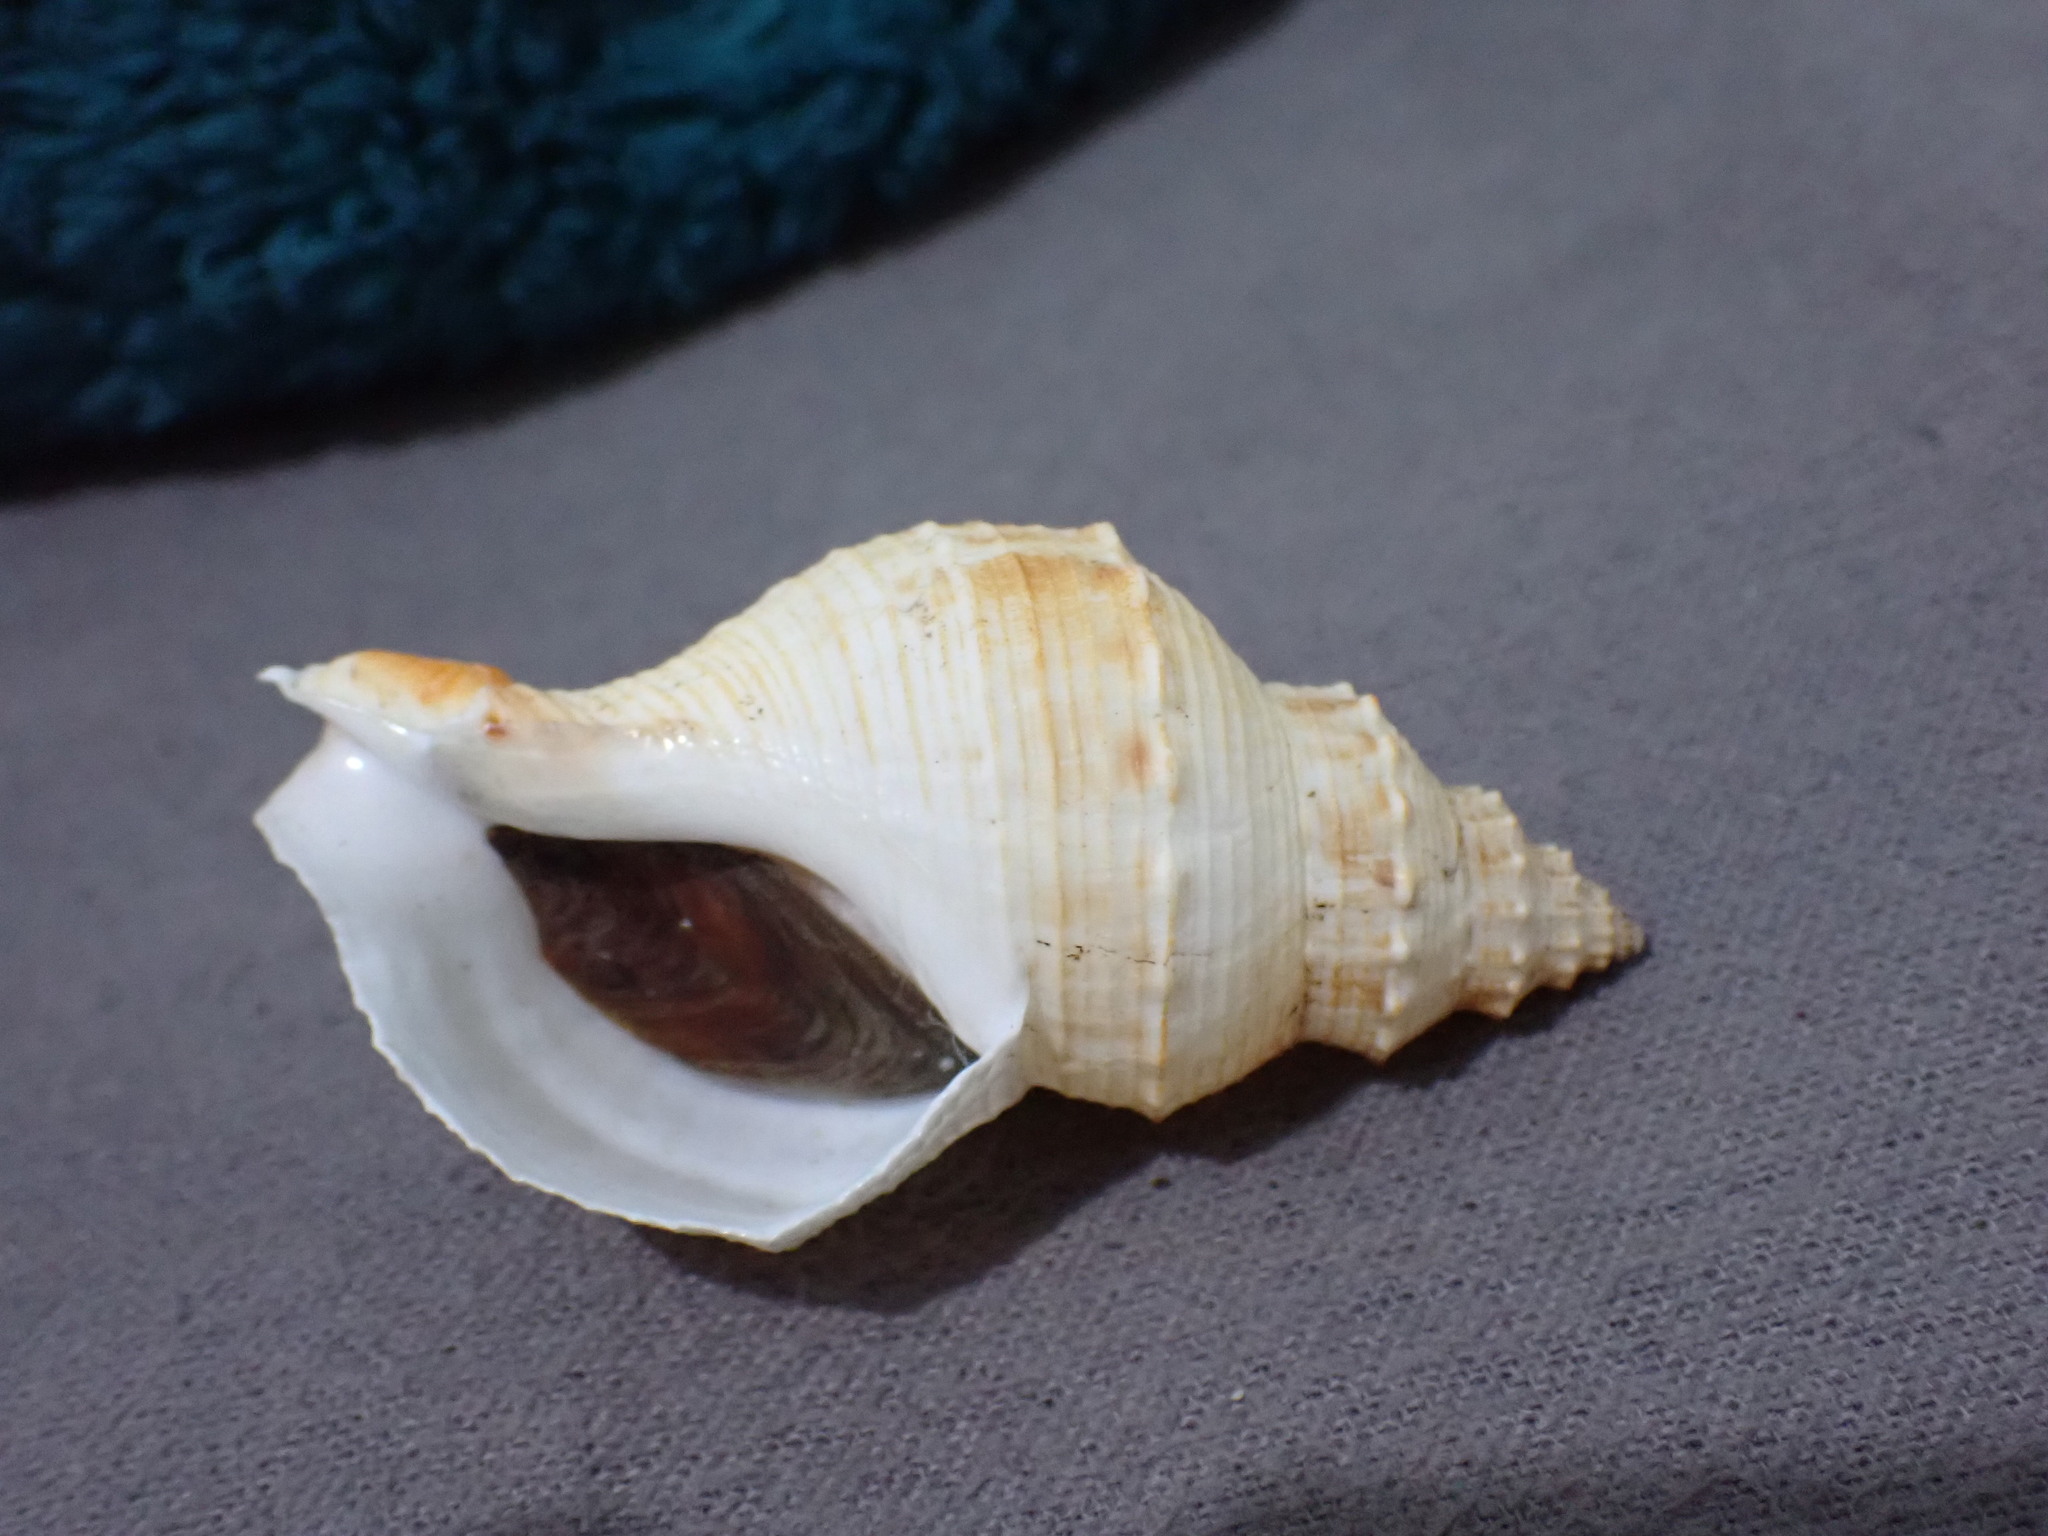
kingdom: Animalia
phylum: Mollusca
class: Gastropoda
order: Neogastropoda
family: Prosiphonidae
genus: Austrofusus
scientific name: Austrofusus glans
